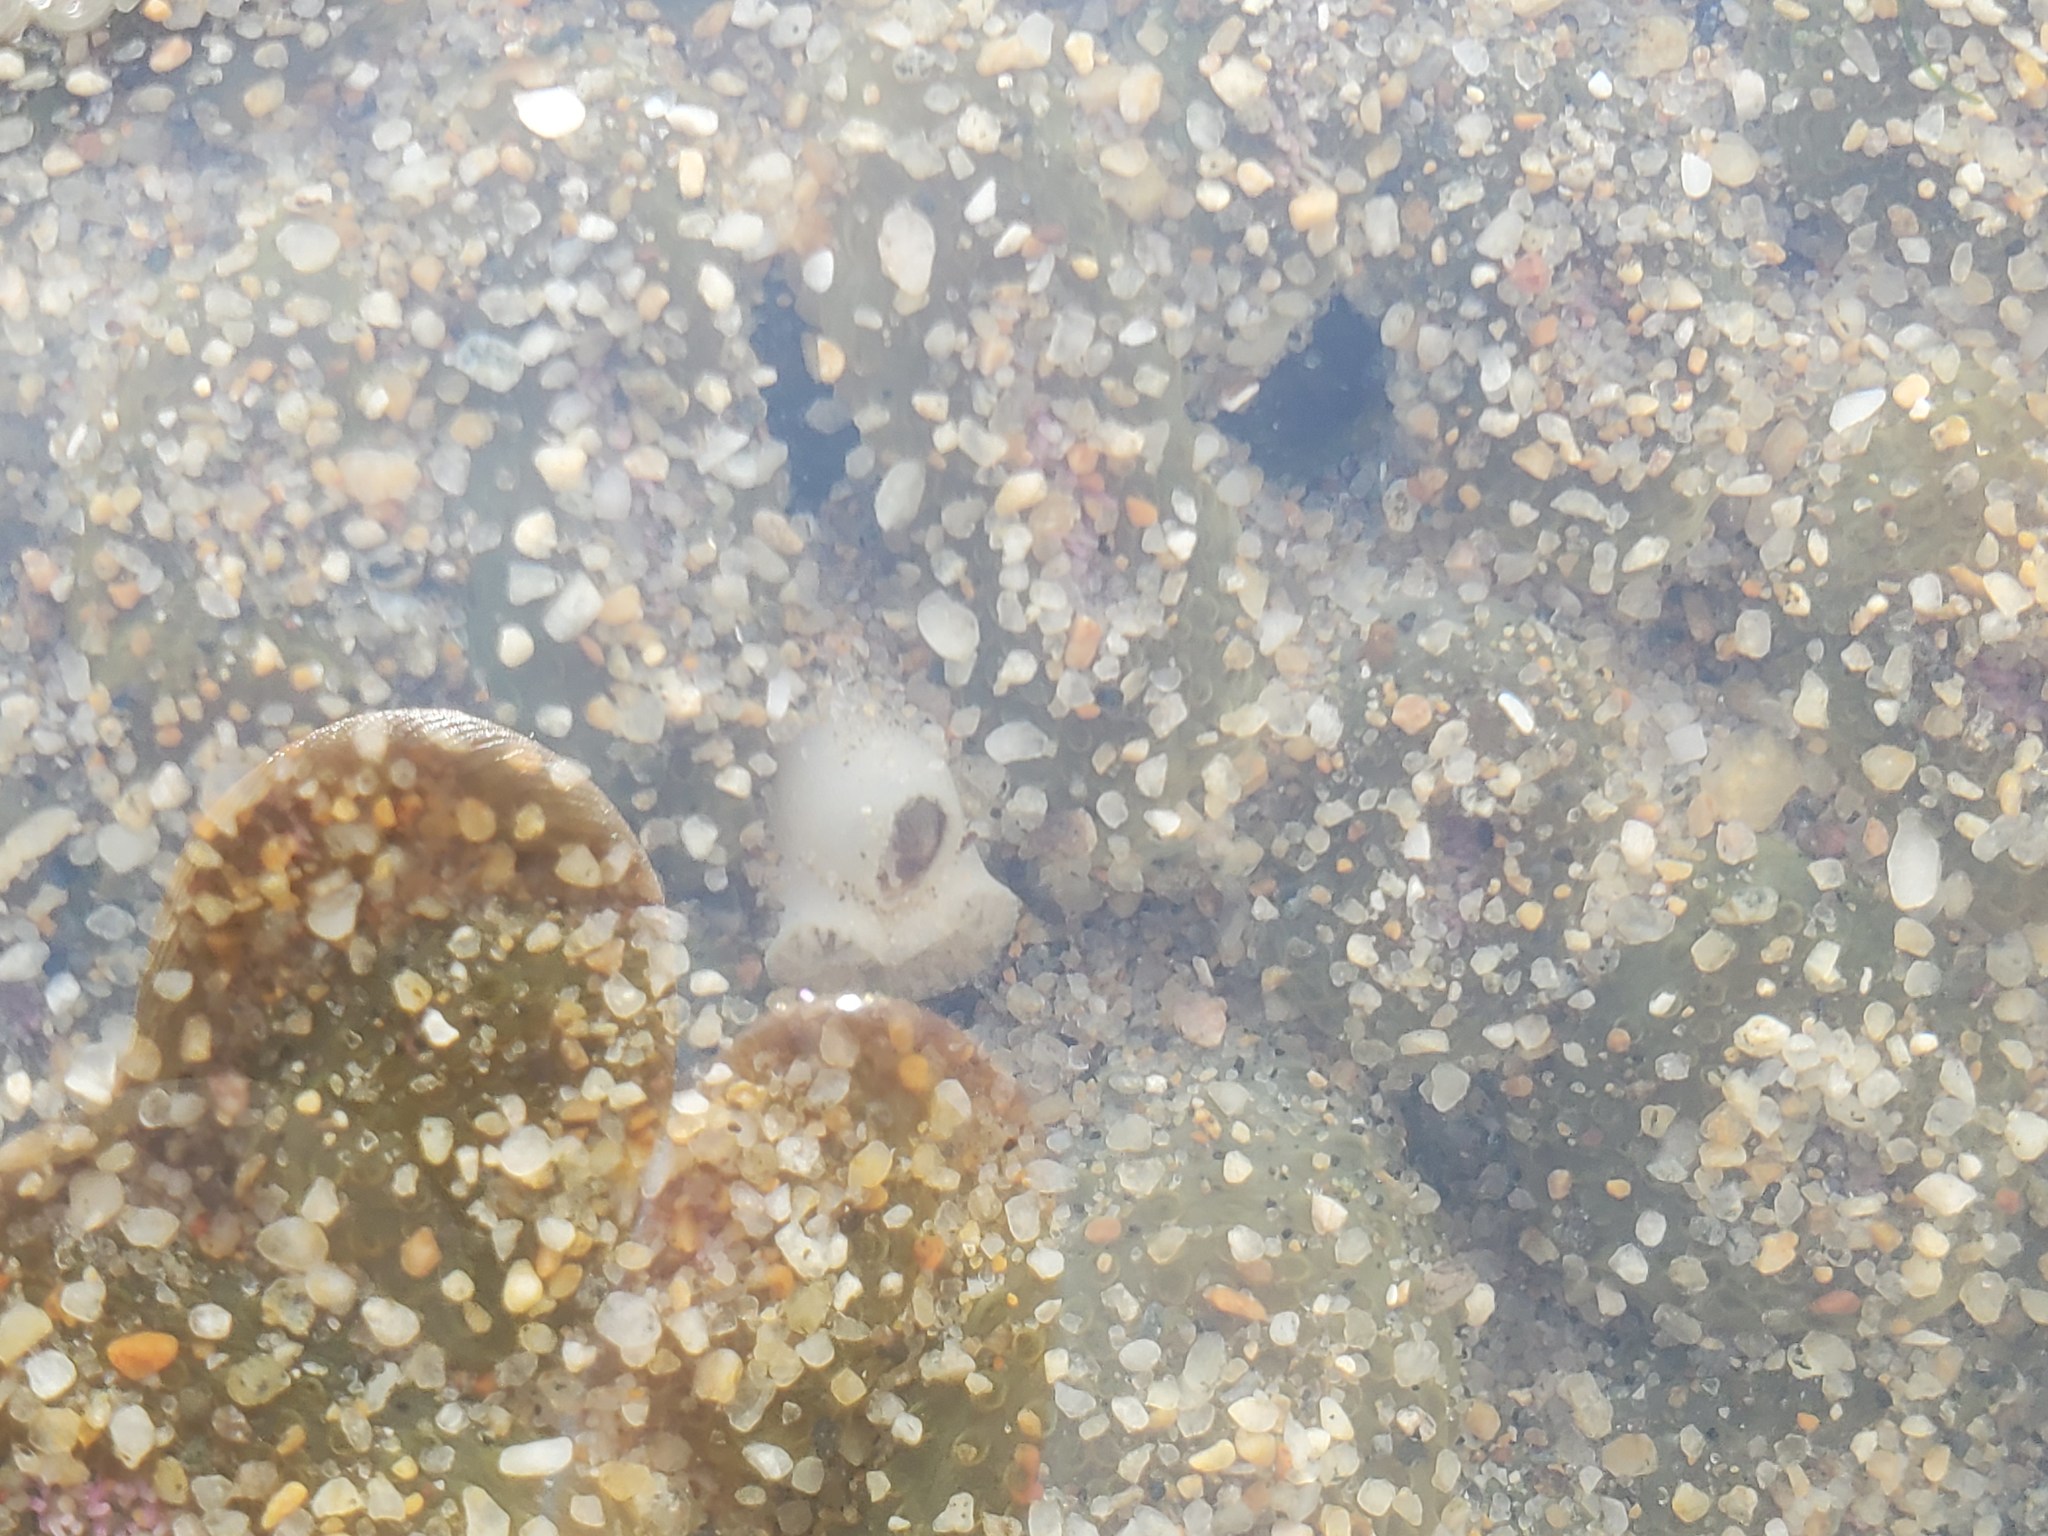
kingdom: Animalia
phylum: Mollusca
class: Bivalvia
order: Myida
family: Pholadidae
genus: Parapholas
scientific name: Parapholas californica
